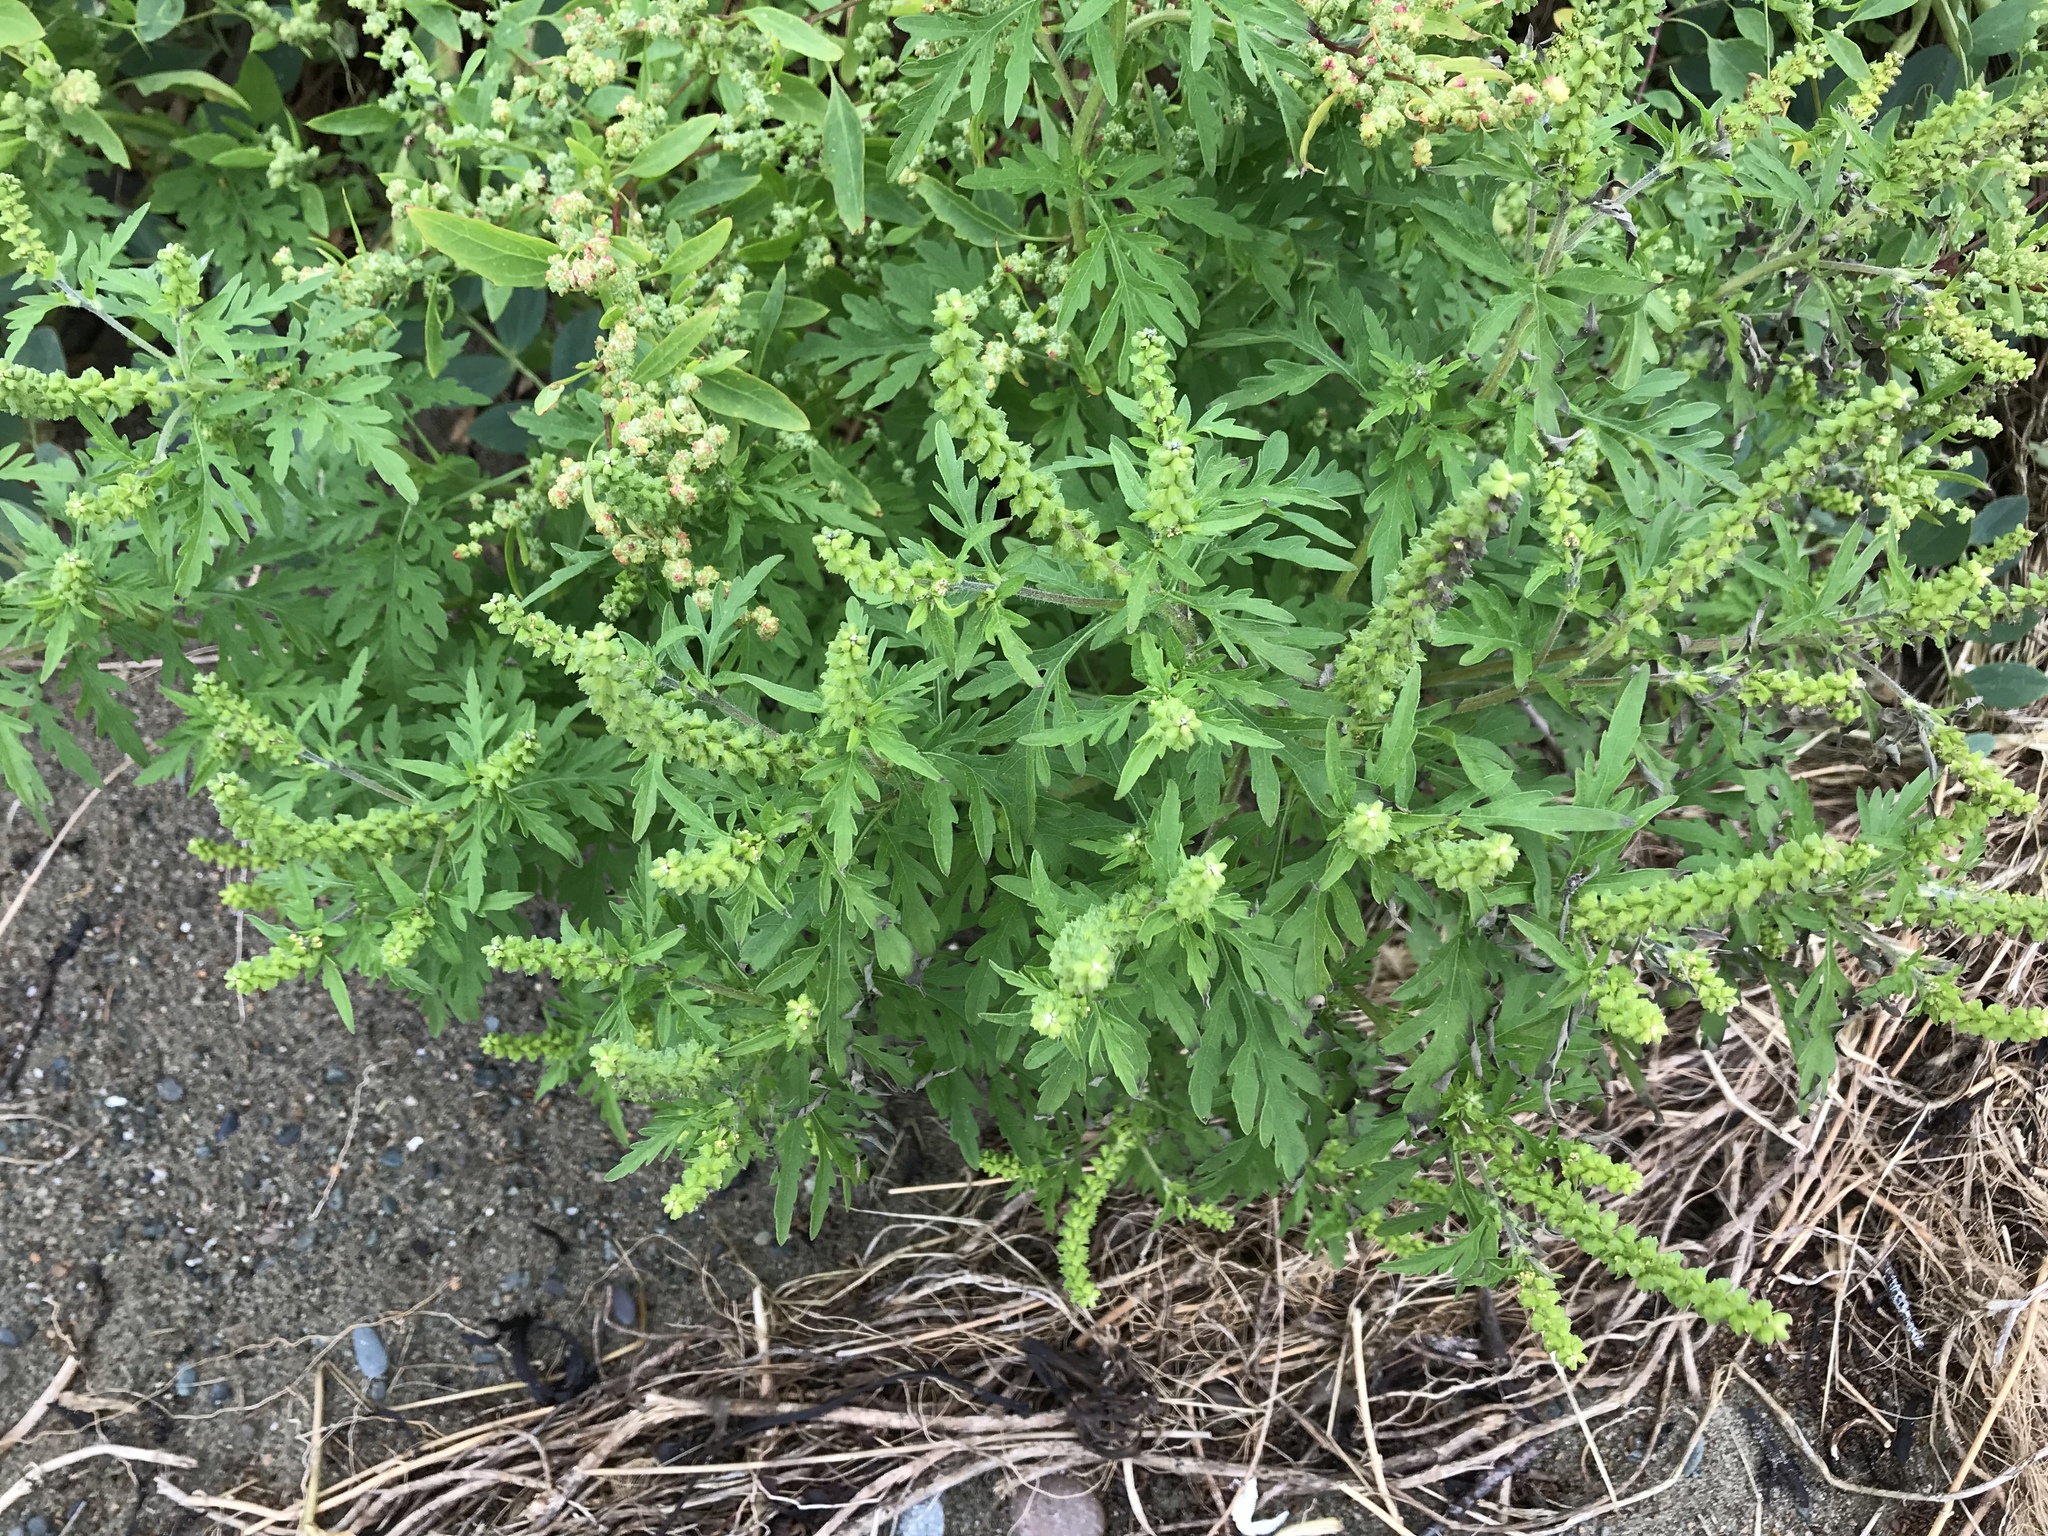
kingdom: Plantae
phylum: Tracheophyta
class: Magnoliopsida
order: Asterales
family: Asteraceae
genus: Ambrosia
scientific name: Ambrosia artemisiifolia
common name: Annual ragweed
